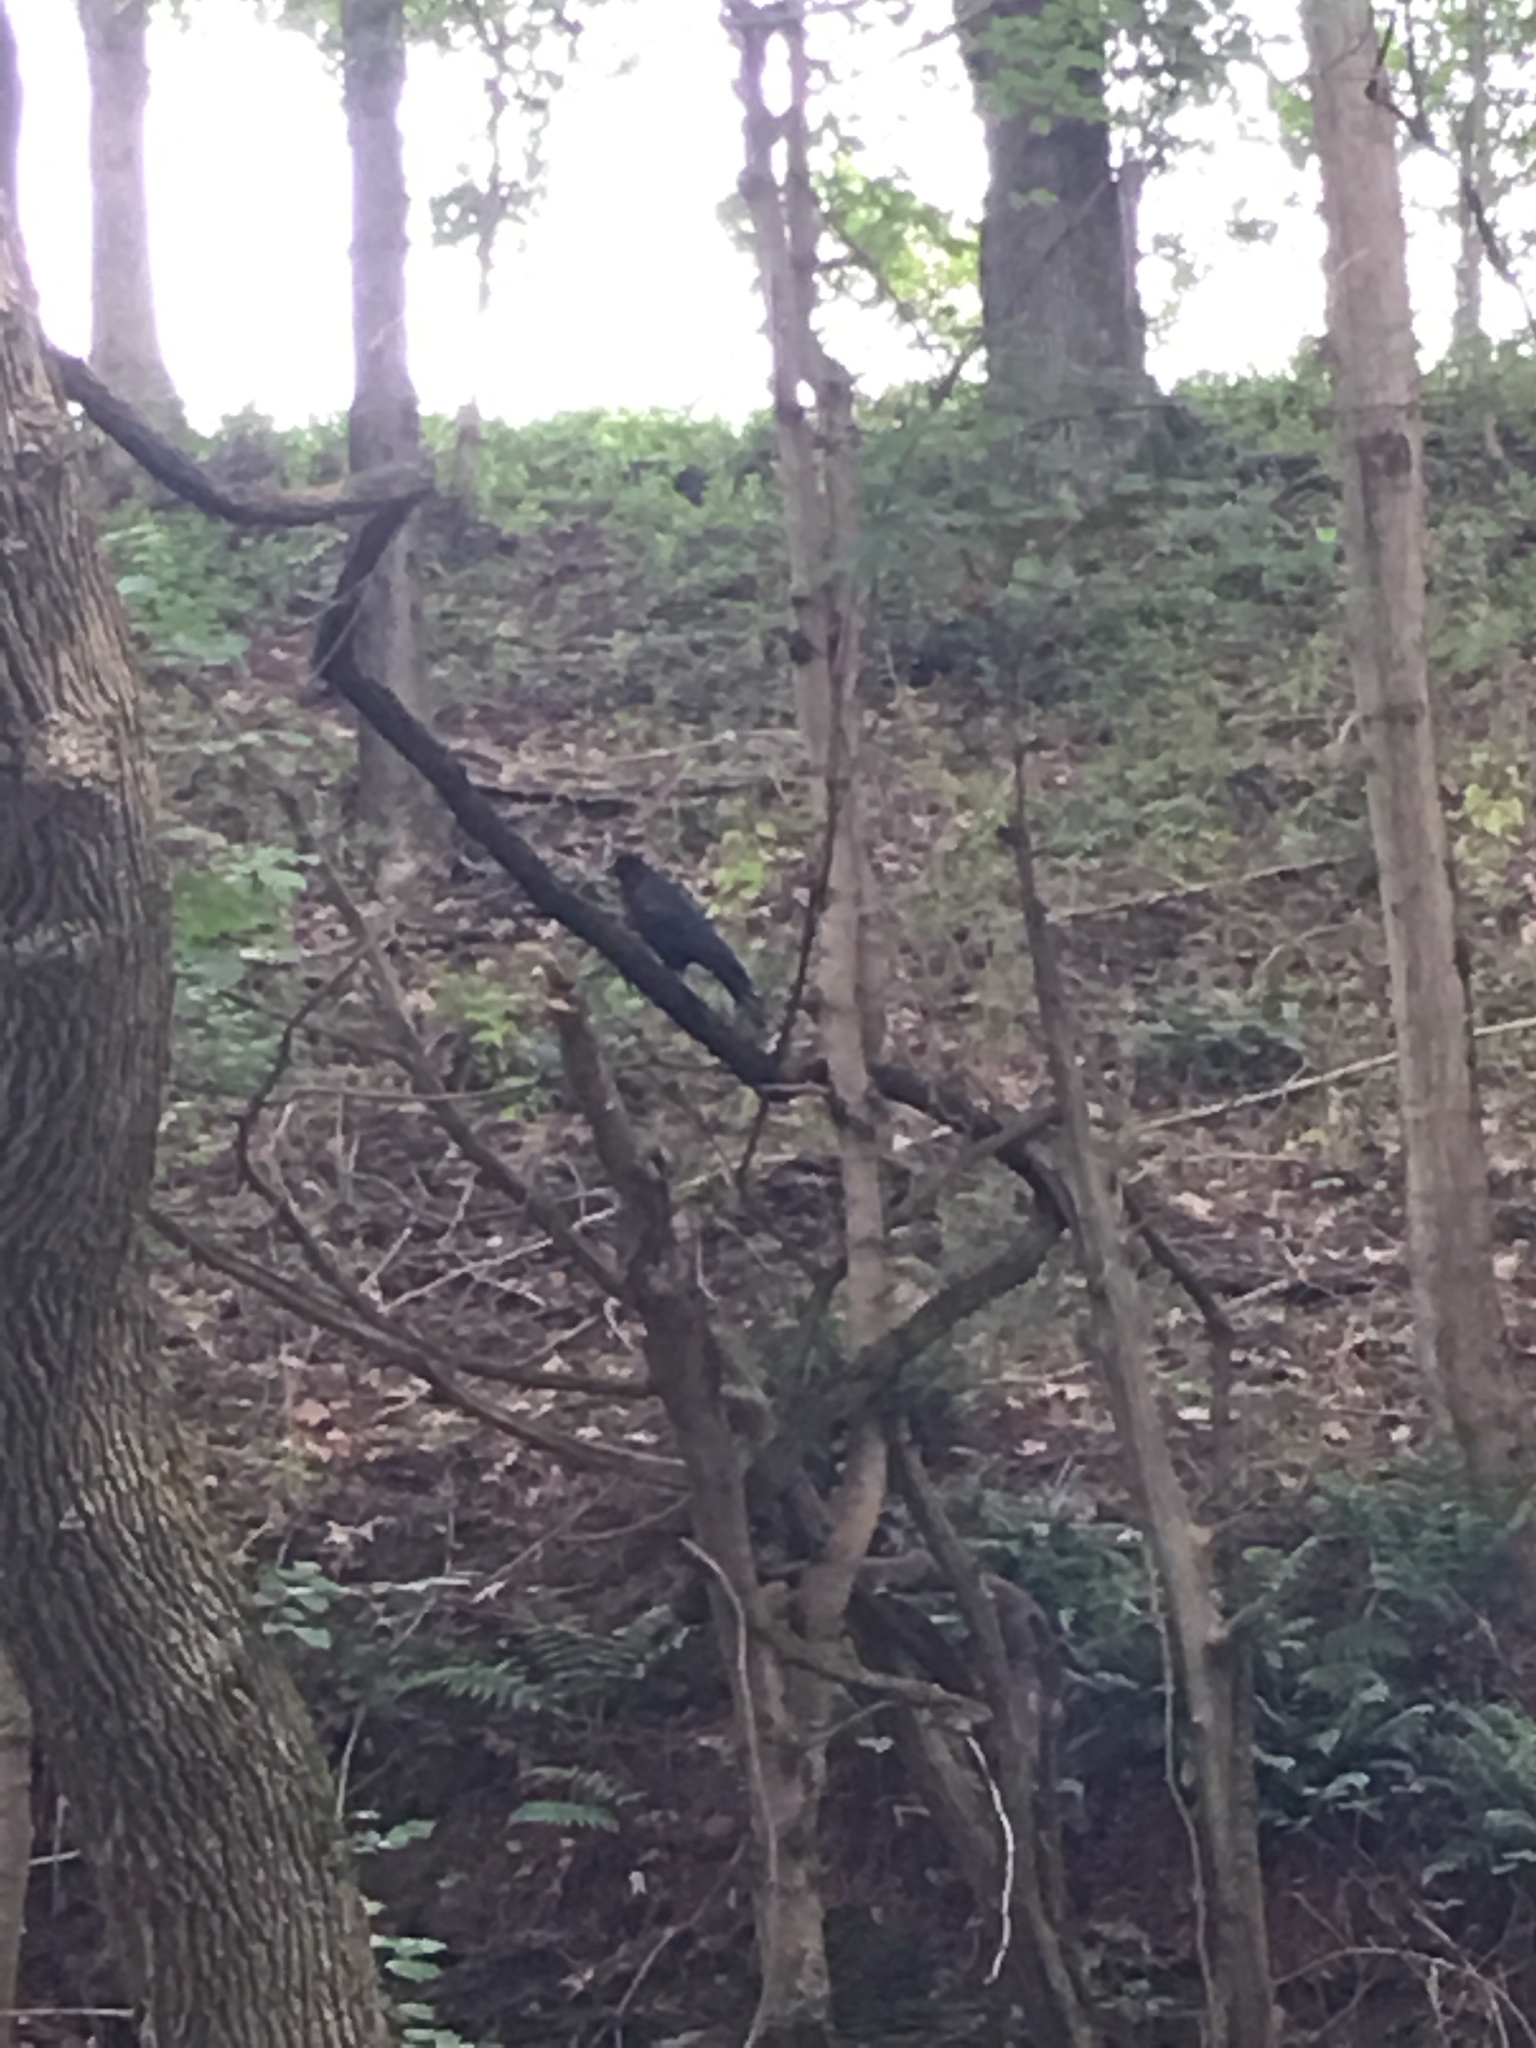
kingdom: Animalia
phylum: Chordata
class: Aves
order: Passeriformes
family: Corvidae
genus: Corvus
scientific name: Corvus brachyrhynchos
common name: American crow
